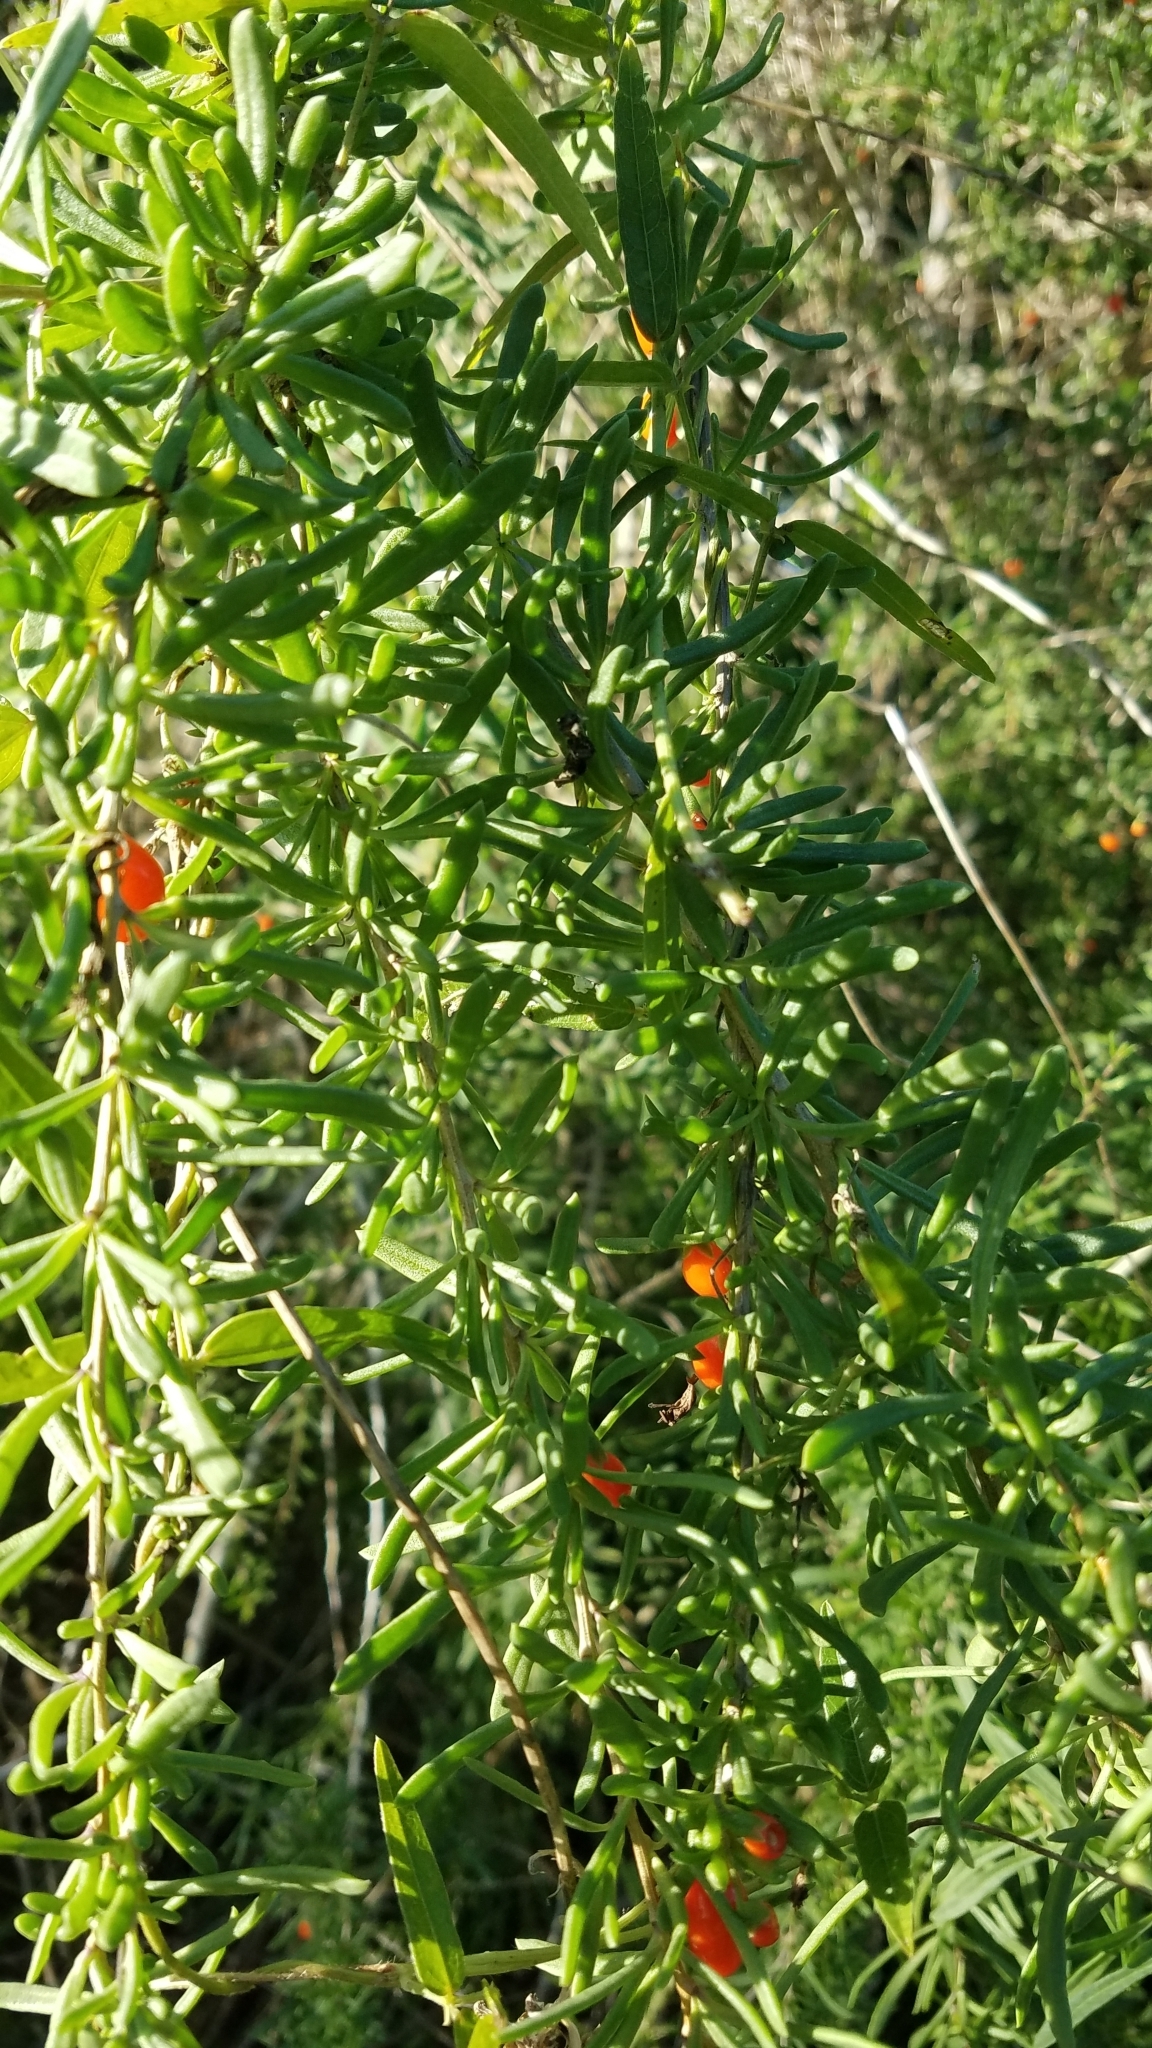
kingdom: Plantae
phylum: Tracheophyta
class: Magnoliopsida
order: Solanales
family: Solanaceae
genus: Lycium
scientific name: Lycium carolinianum
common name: Christmasberry
